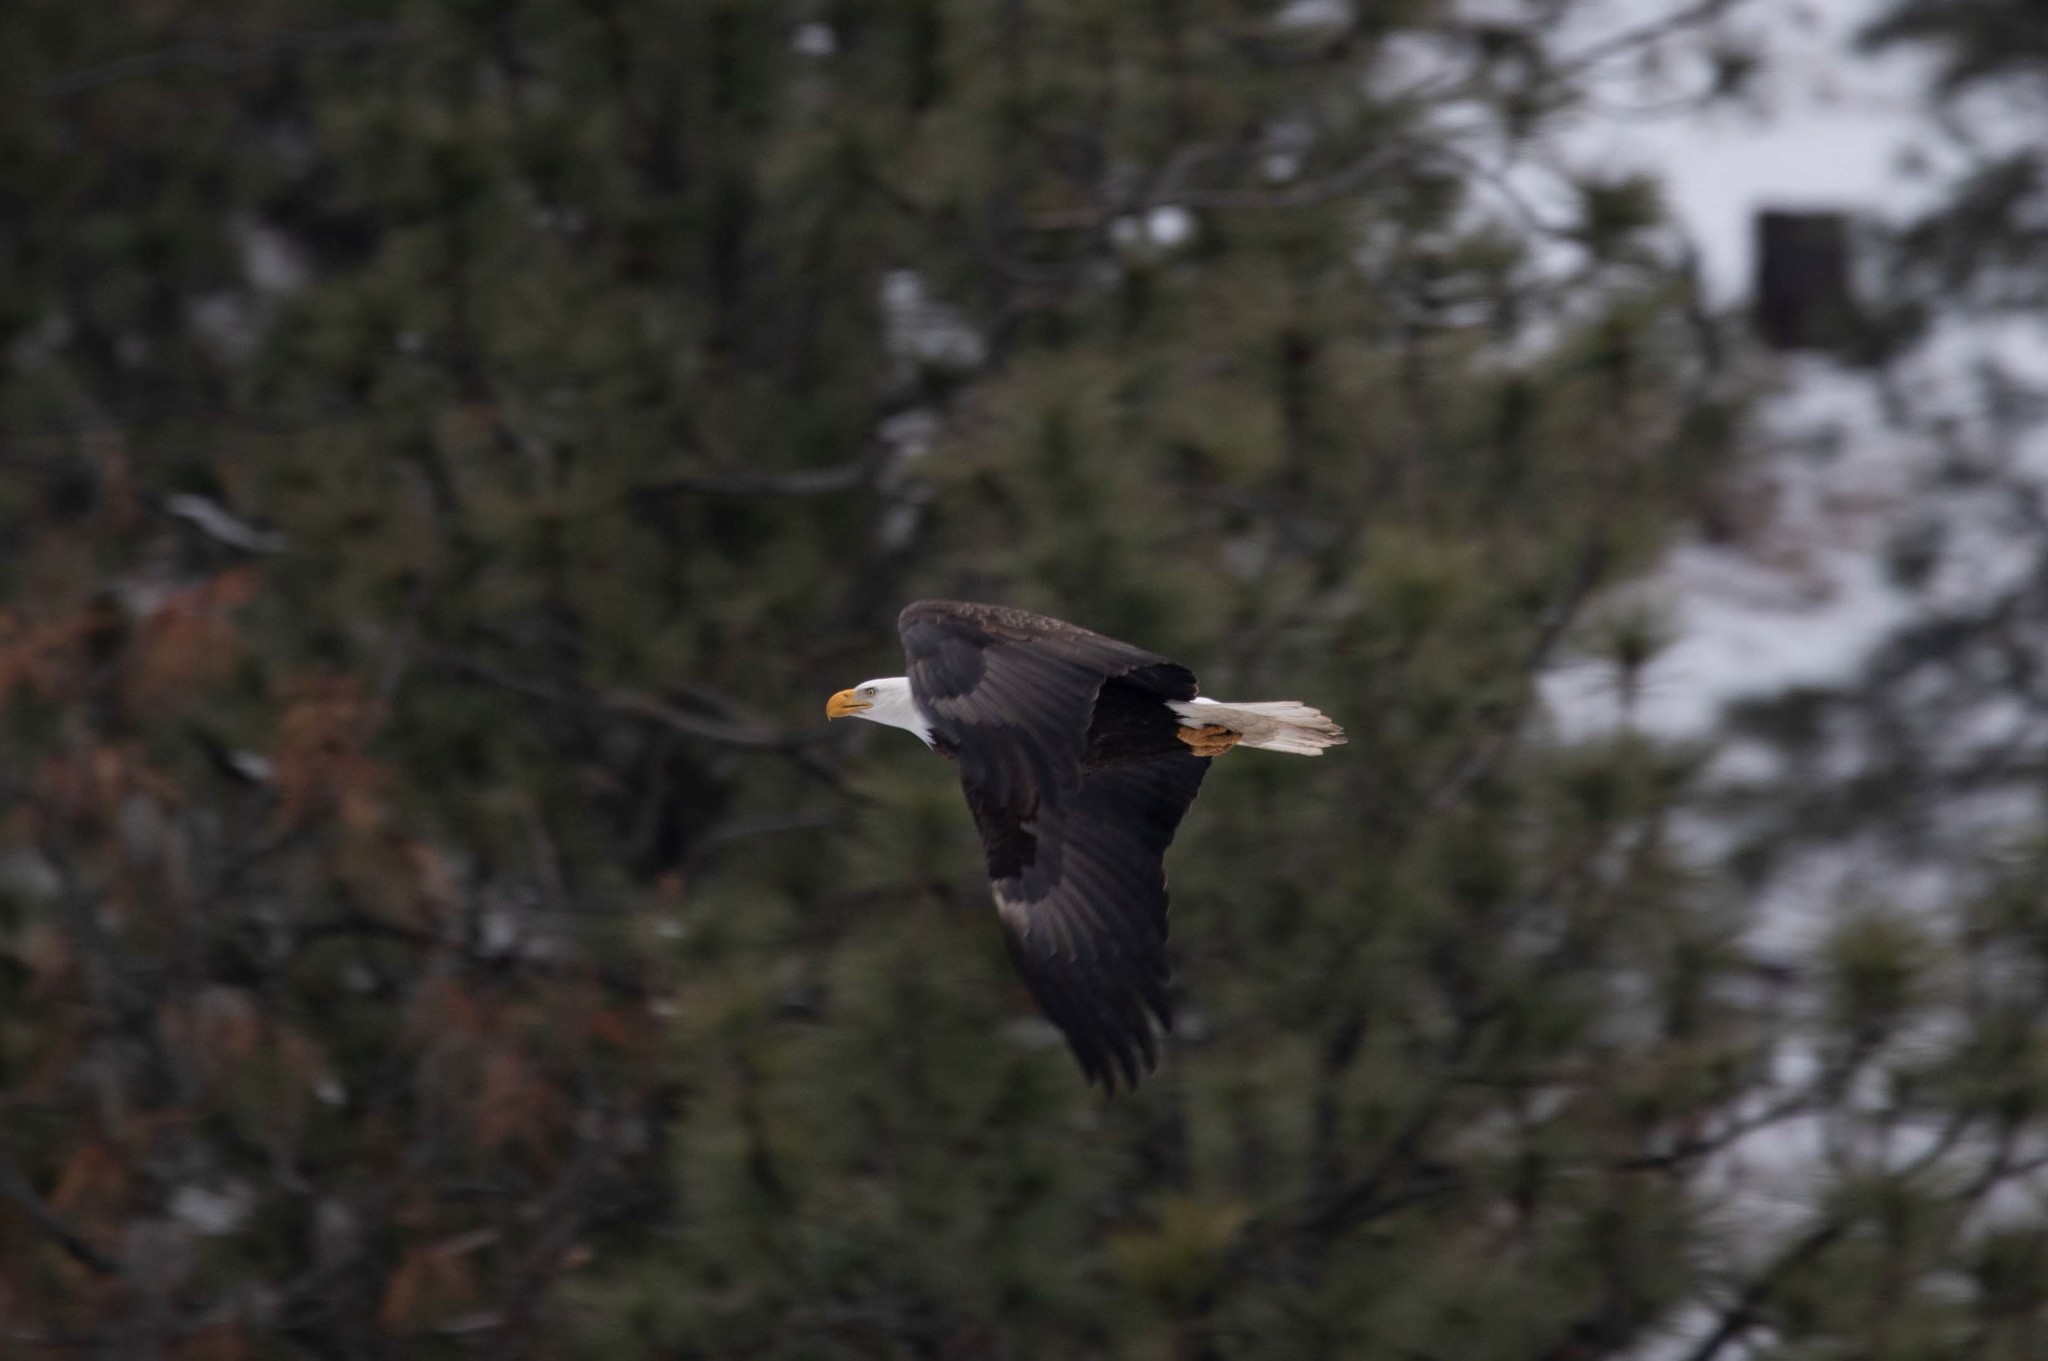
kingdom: Animalia
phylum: Chordata
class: Aves
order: Accipitriformes
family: Accipitridae
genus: Haliaeetus
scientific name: Haliaeetus leucocephalus
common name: Bald eagle
